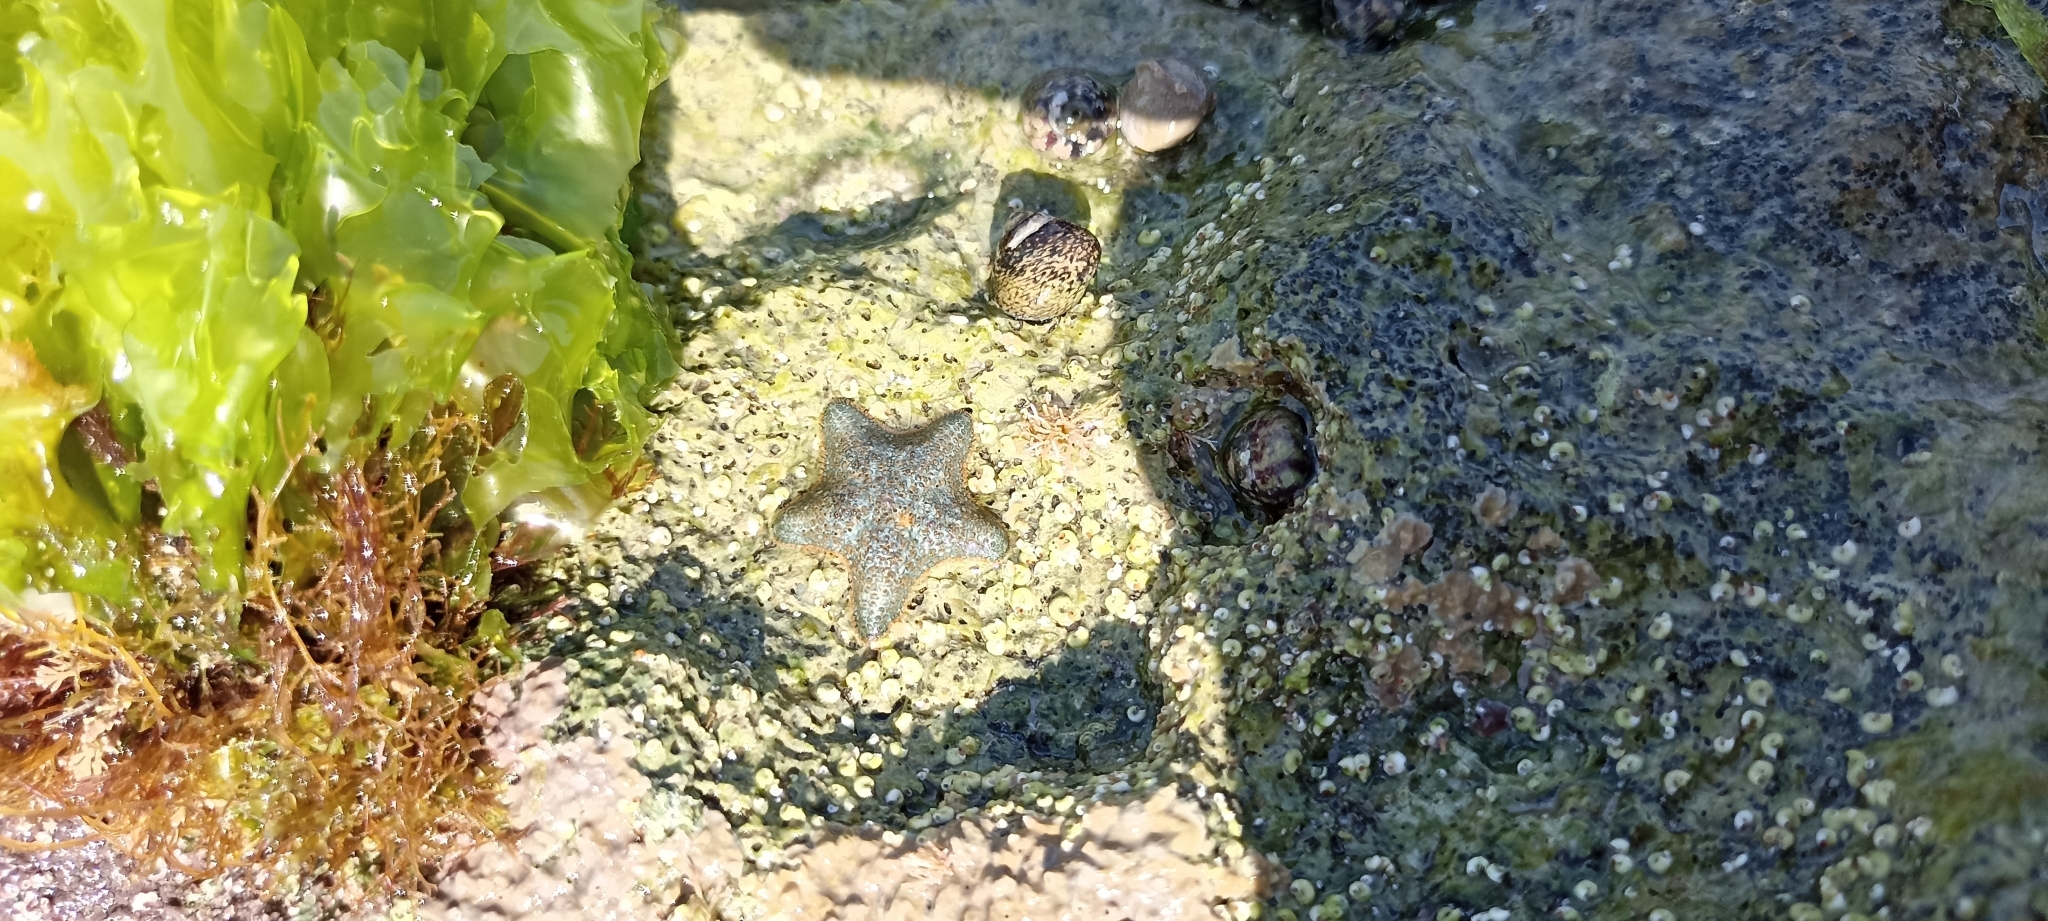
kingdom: Animalia
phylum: Echinodermata
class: Asteroidea
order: Valvatida
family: Asterinidae
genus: Asterina
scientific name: Asterina gibbosa
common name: Cushion star
